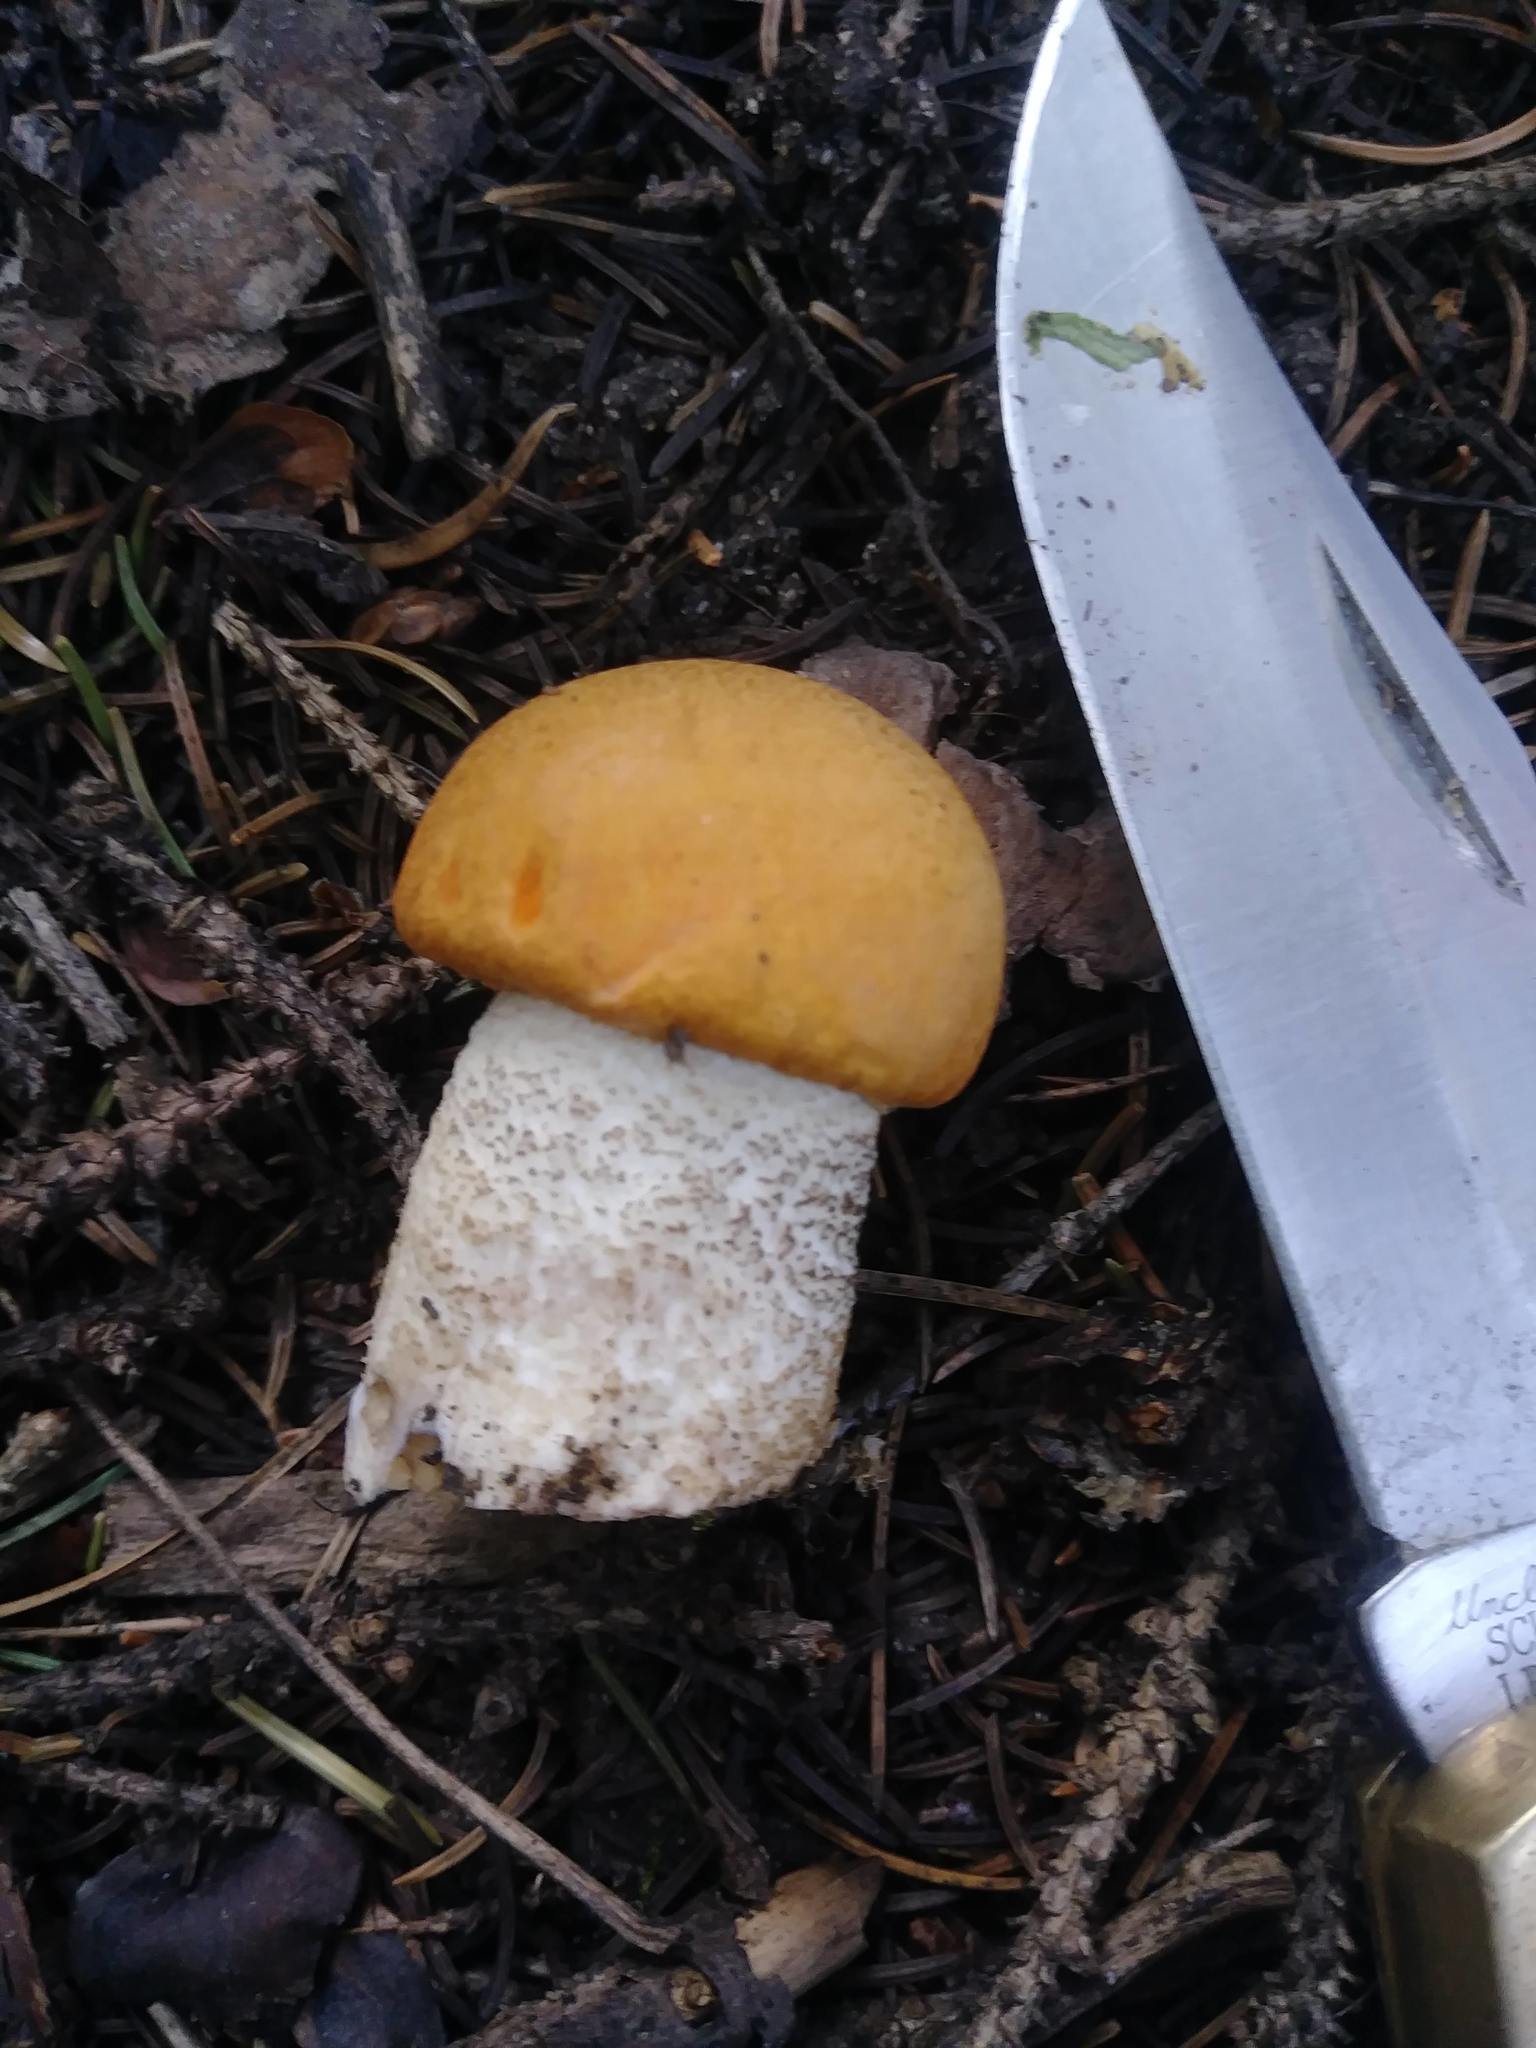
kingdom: Fungi
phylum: Basidiomycota
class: Agaricomycetes
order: Boletales
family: Boletaceae
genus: Leccinum
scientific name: Leccinum insigne
